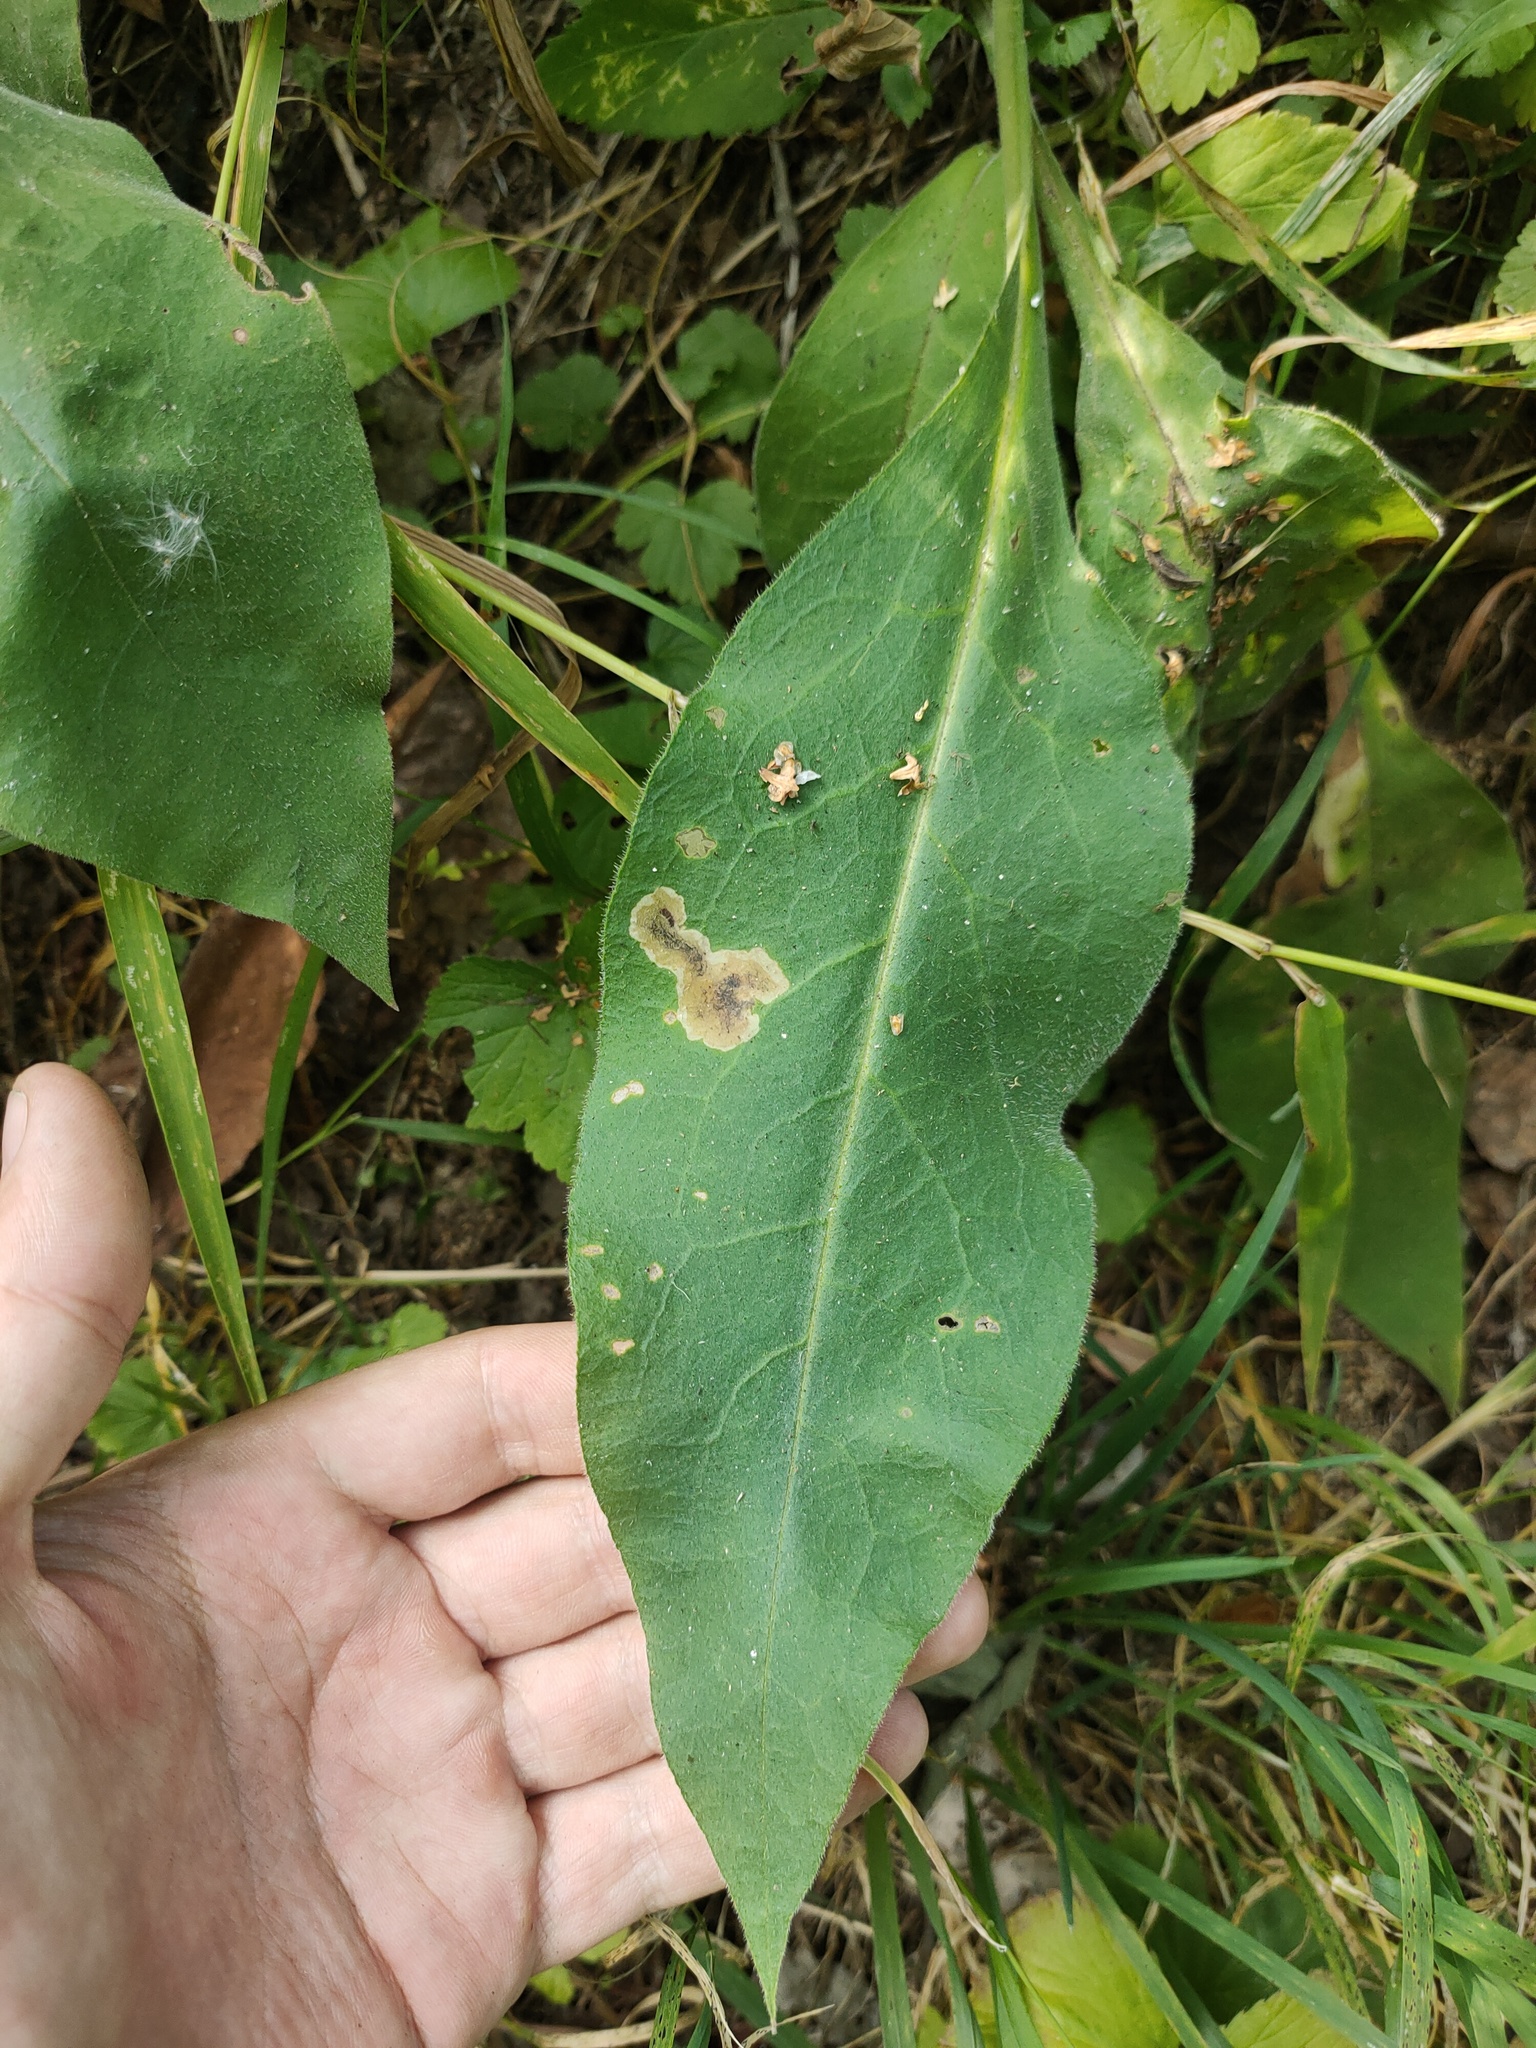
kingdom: Plantae
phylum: Tracheophyta
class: Magnoliopsida
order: Boraginales
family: Boraginaceae
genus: Pulmonaria
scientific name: Pulmonaria mollis
